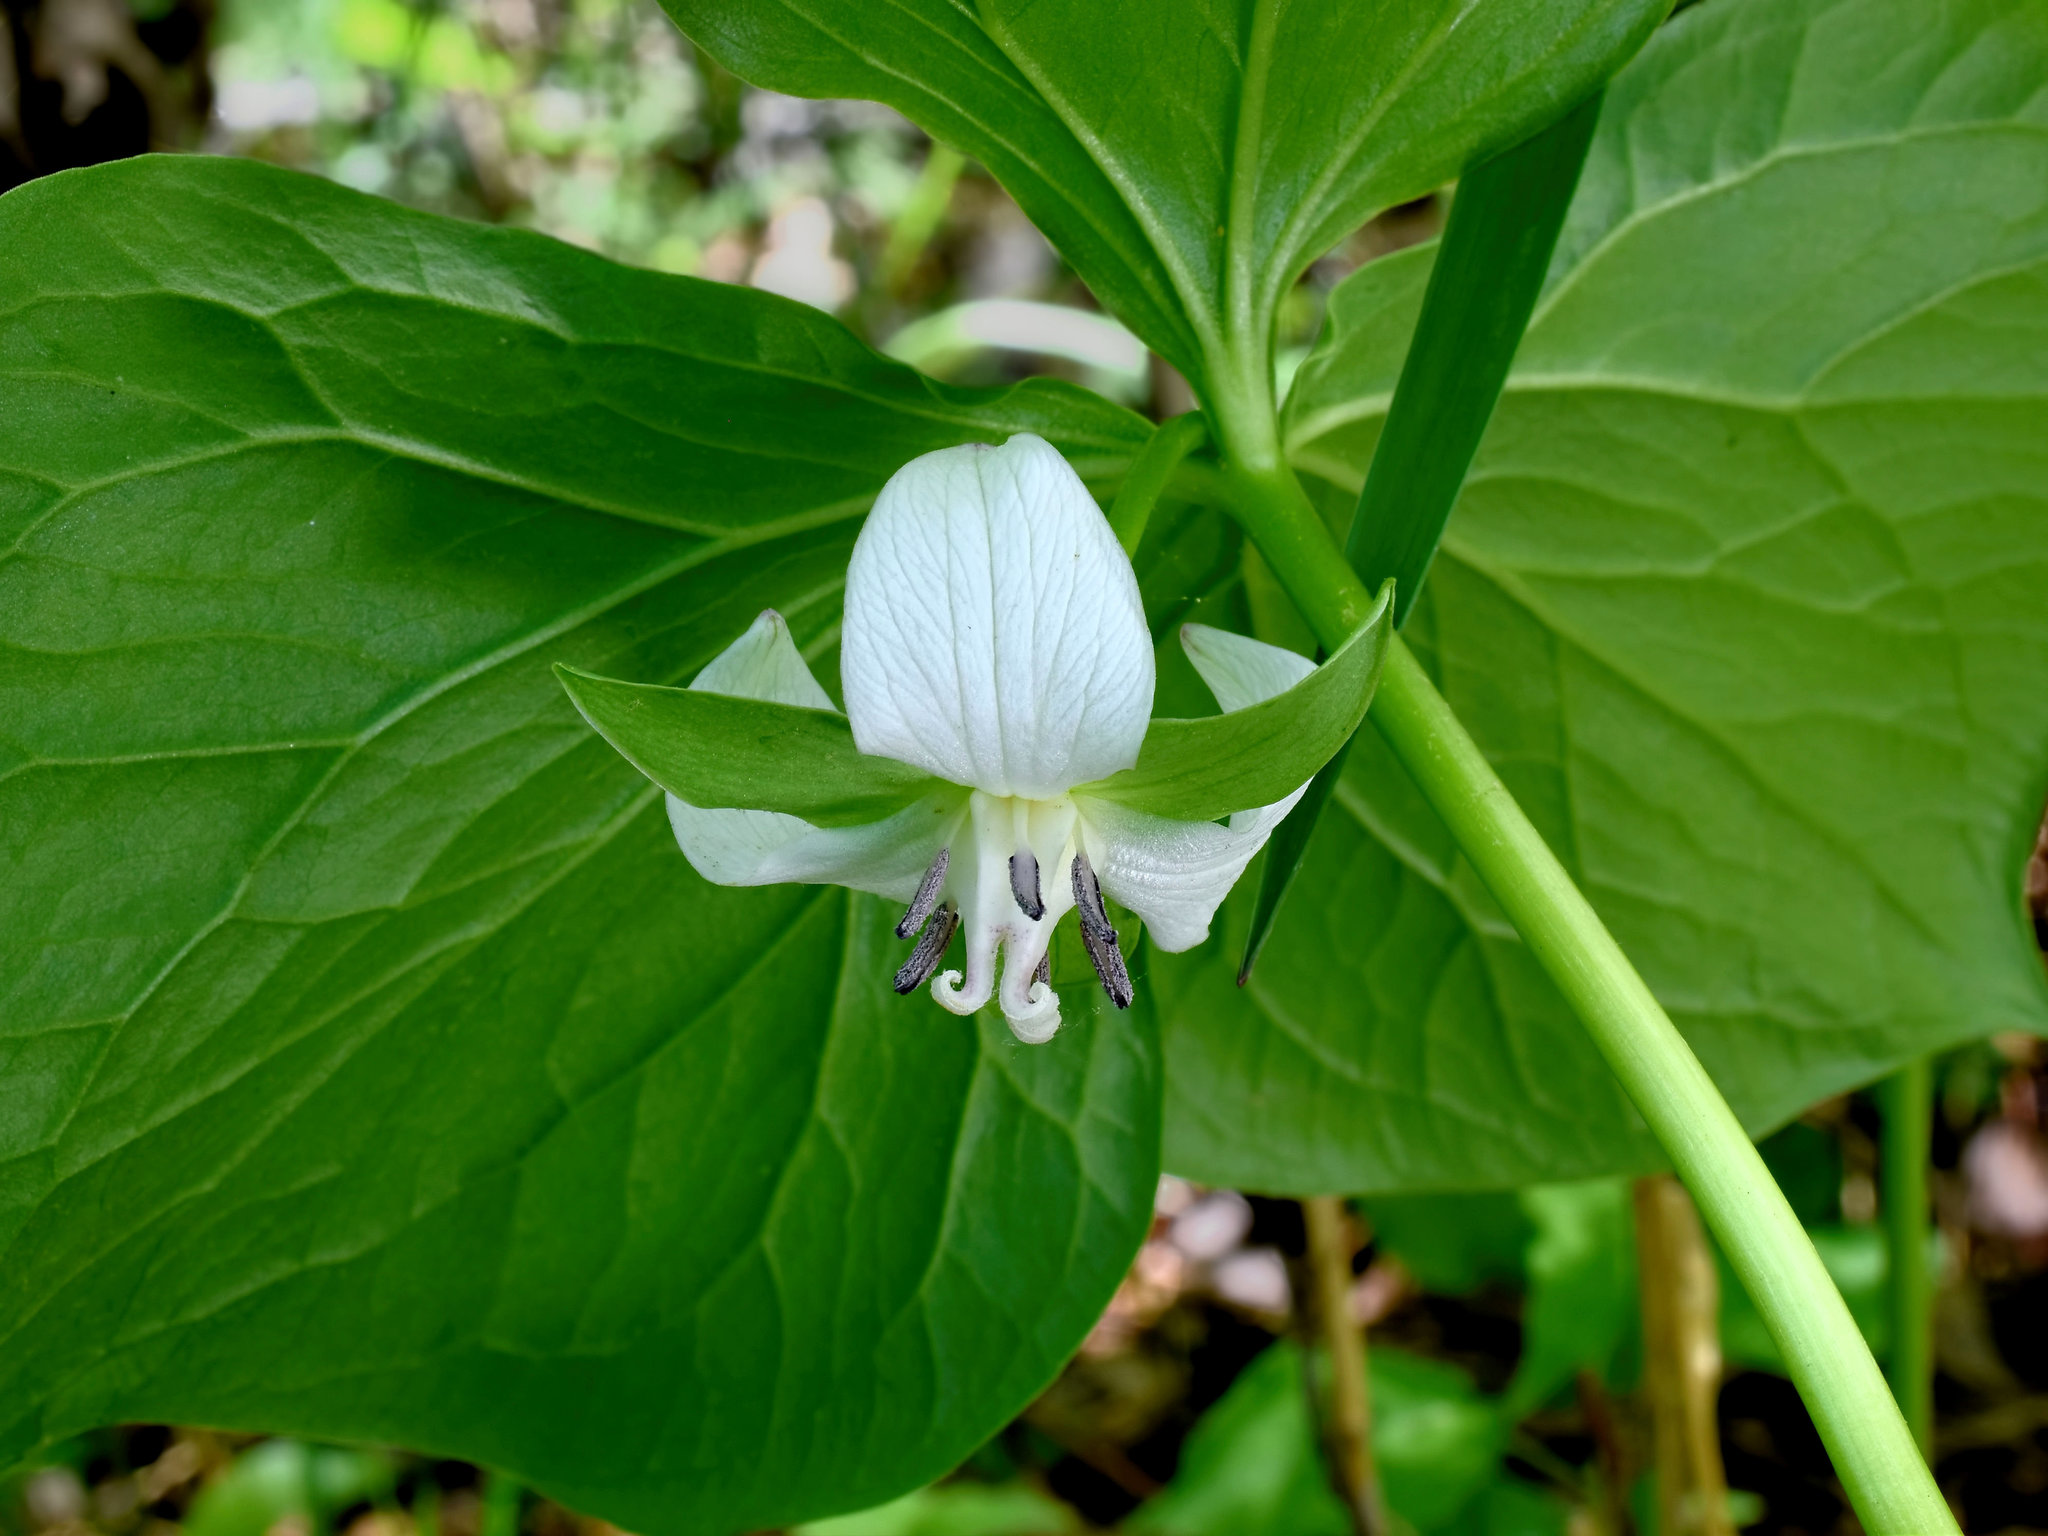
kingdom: Plantae
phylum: Tracheophyta
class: Liliopsida
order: Liliales
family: Melanthiaceae
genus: Trillium
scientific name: Trillium cernuum
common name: Nodding trillium
